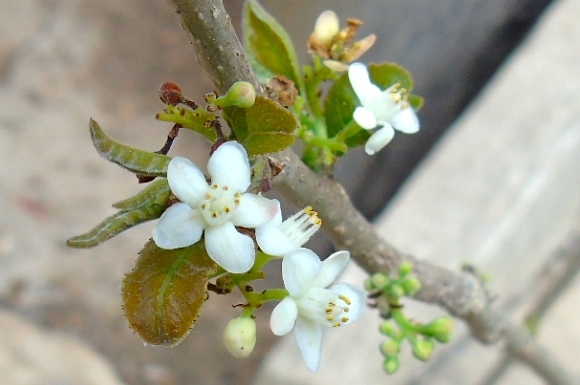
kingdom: Plantae
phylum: Tracheophyta
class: Magnoliopsida
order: Sapindales
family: Burseraceae
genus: Bursera
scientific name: Bursera
